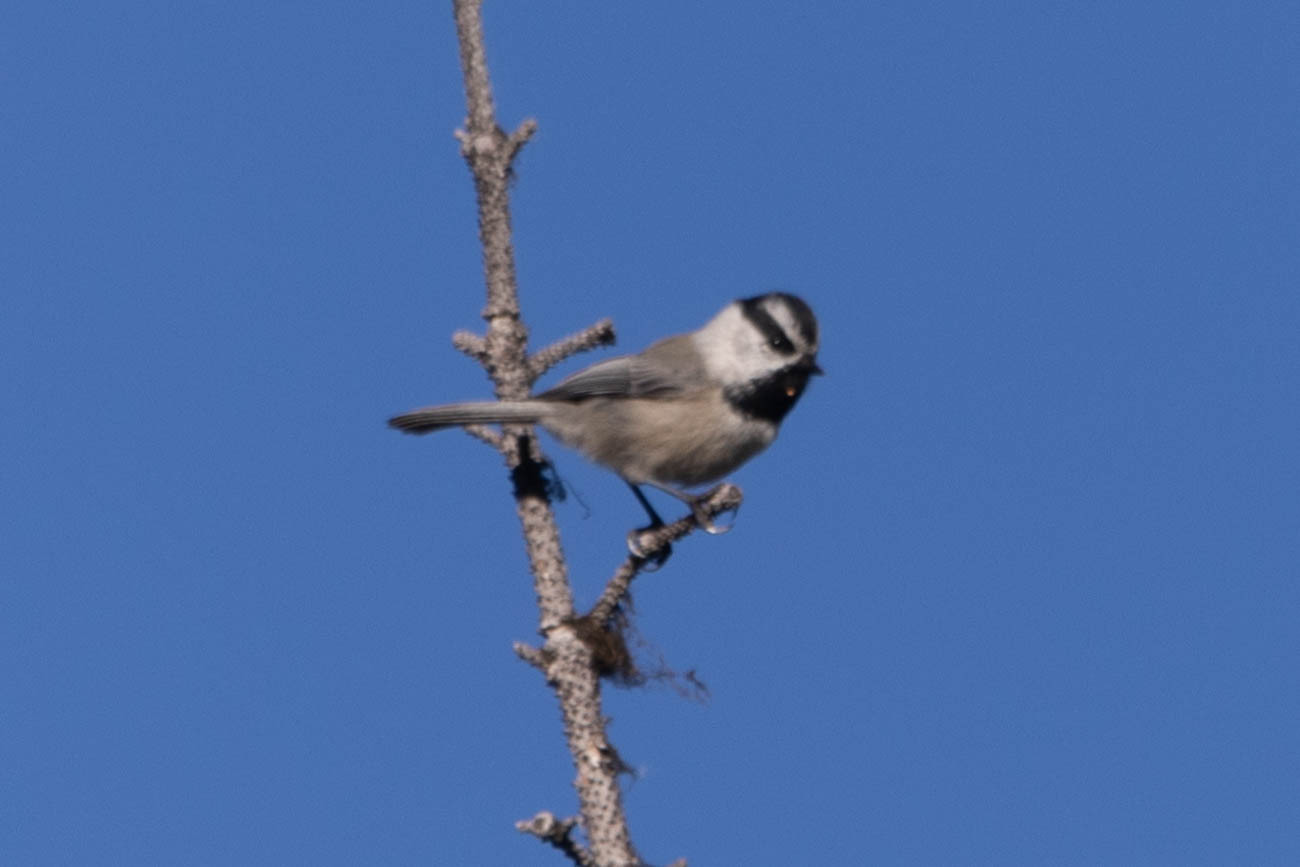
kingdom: Animalia
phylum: Chordata
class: Aves
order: Passeriformes
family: Paridae
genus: Poecile
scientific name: Poecile gambeli
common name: Mountain chickadee
